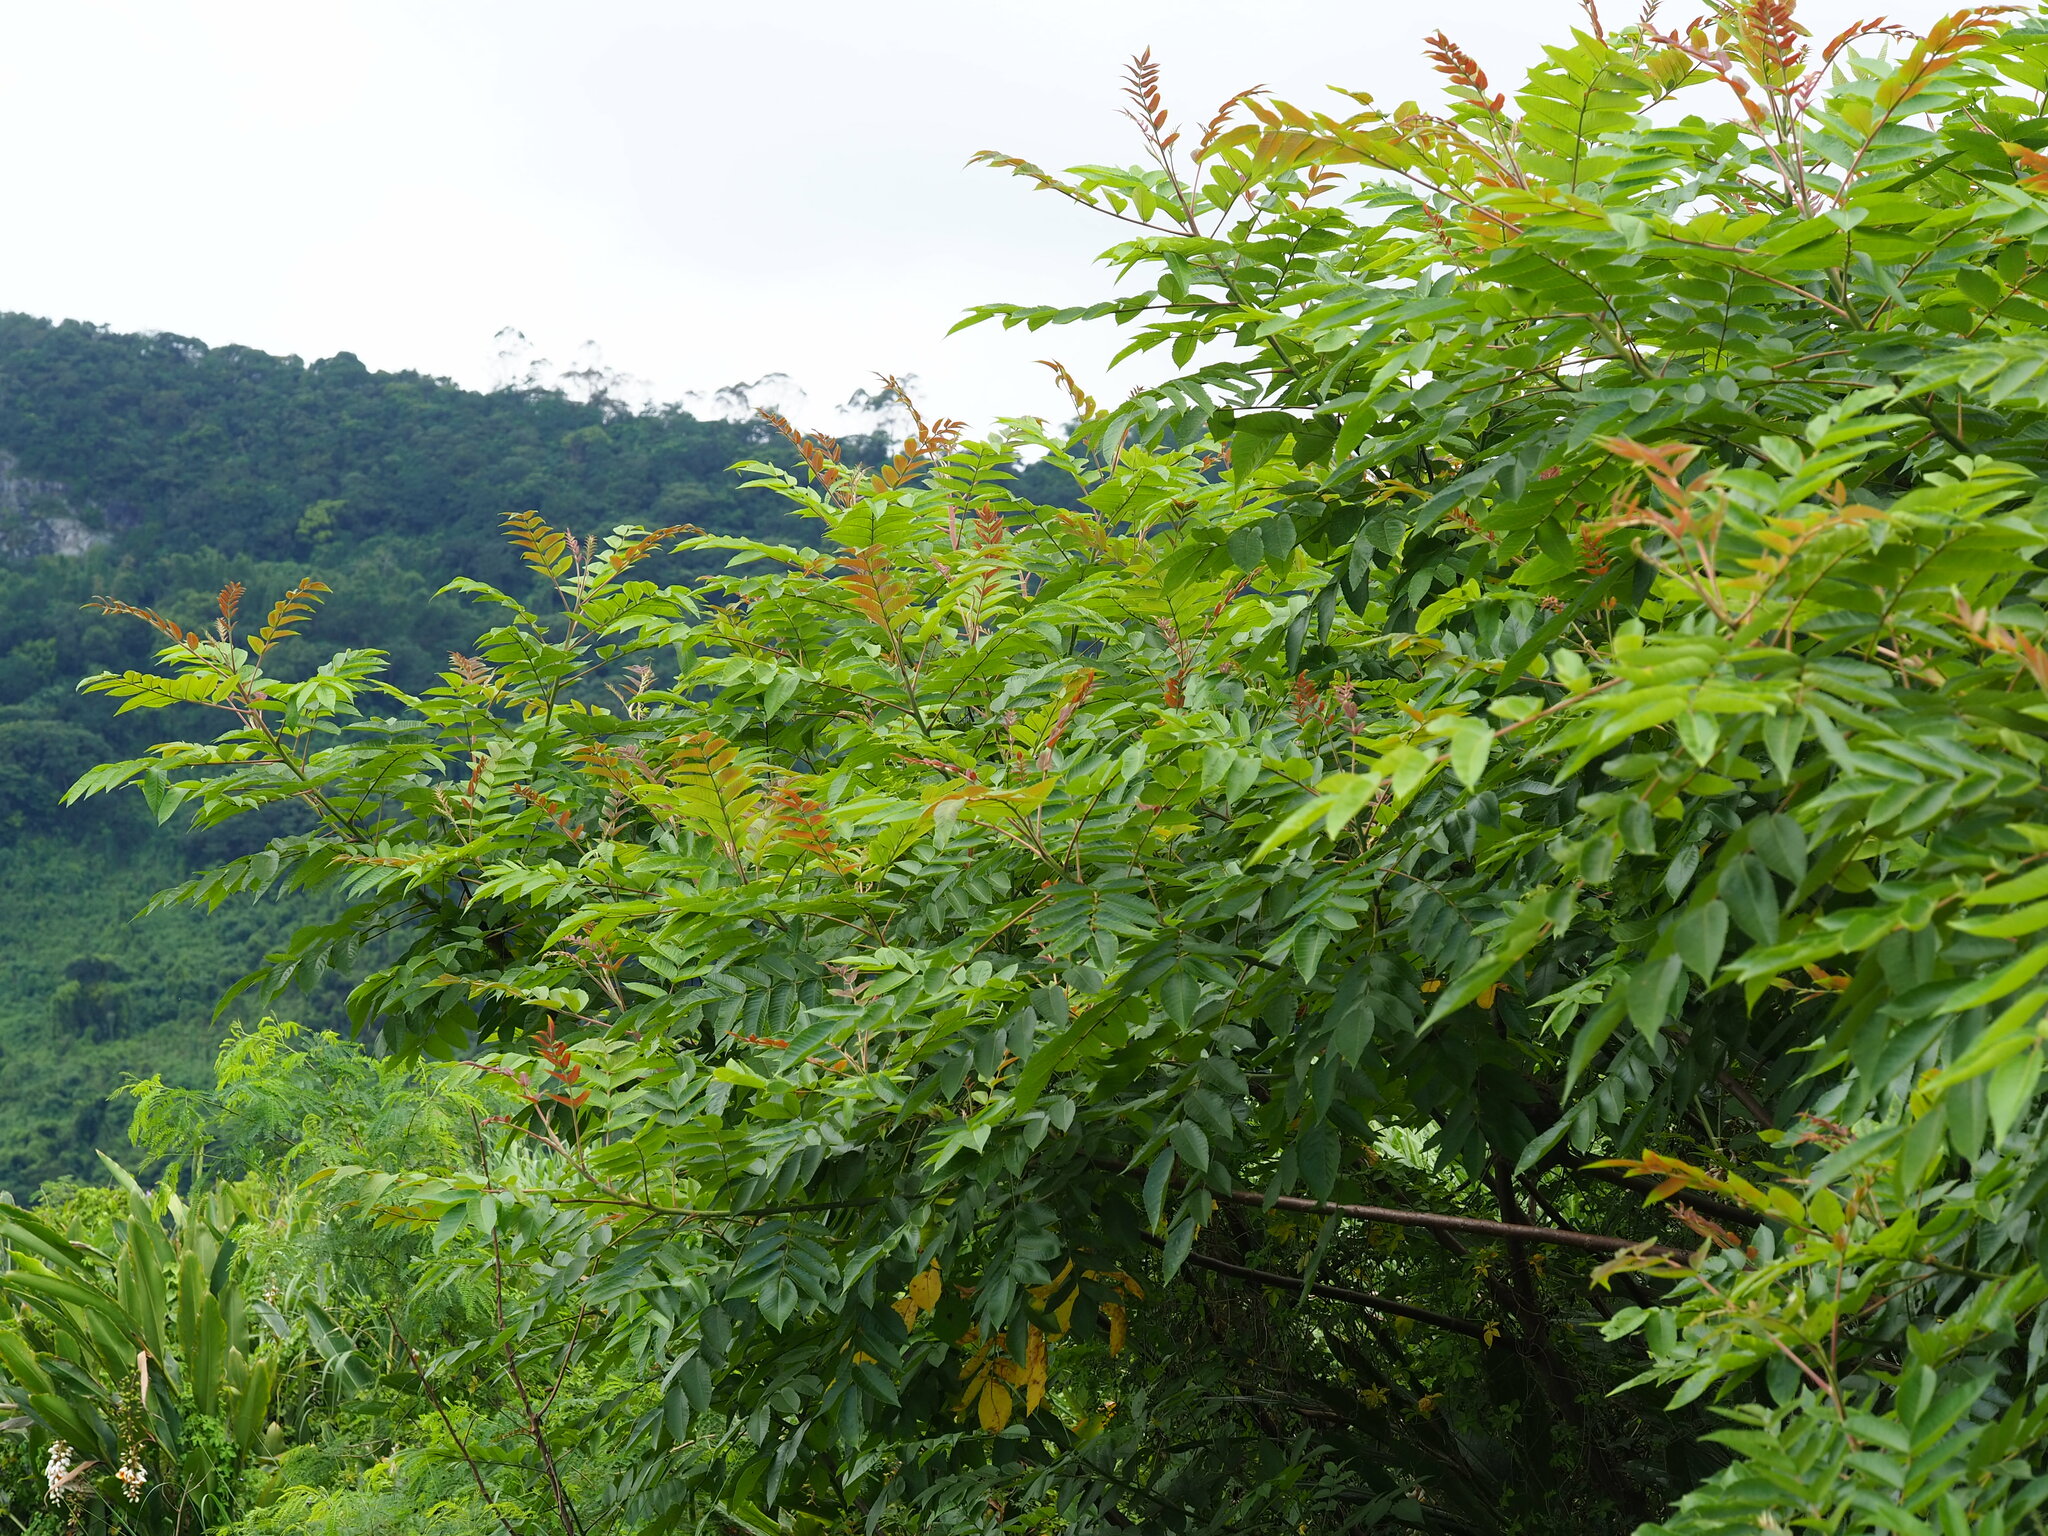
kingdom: Plantae
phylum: Tracheophyta
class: Magnoliopsida
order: Sapindales
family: Anacardiaceae
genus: Rhus
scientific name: Rhus chinensis
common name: Chinese gall
